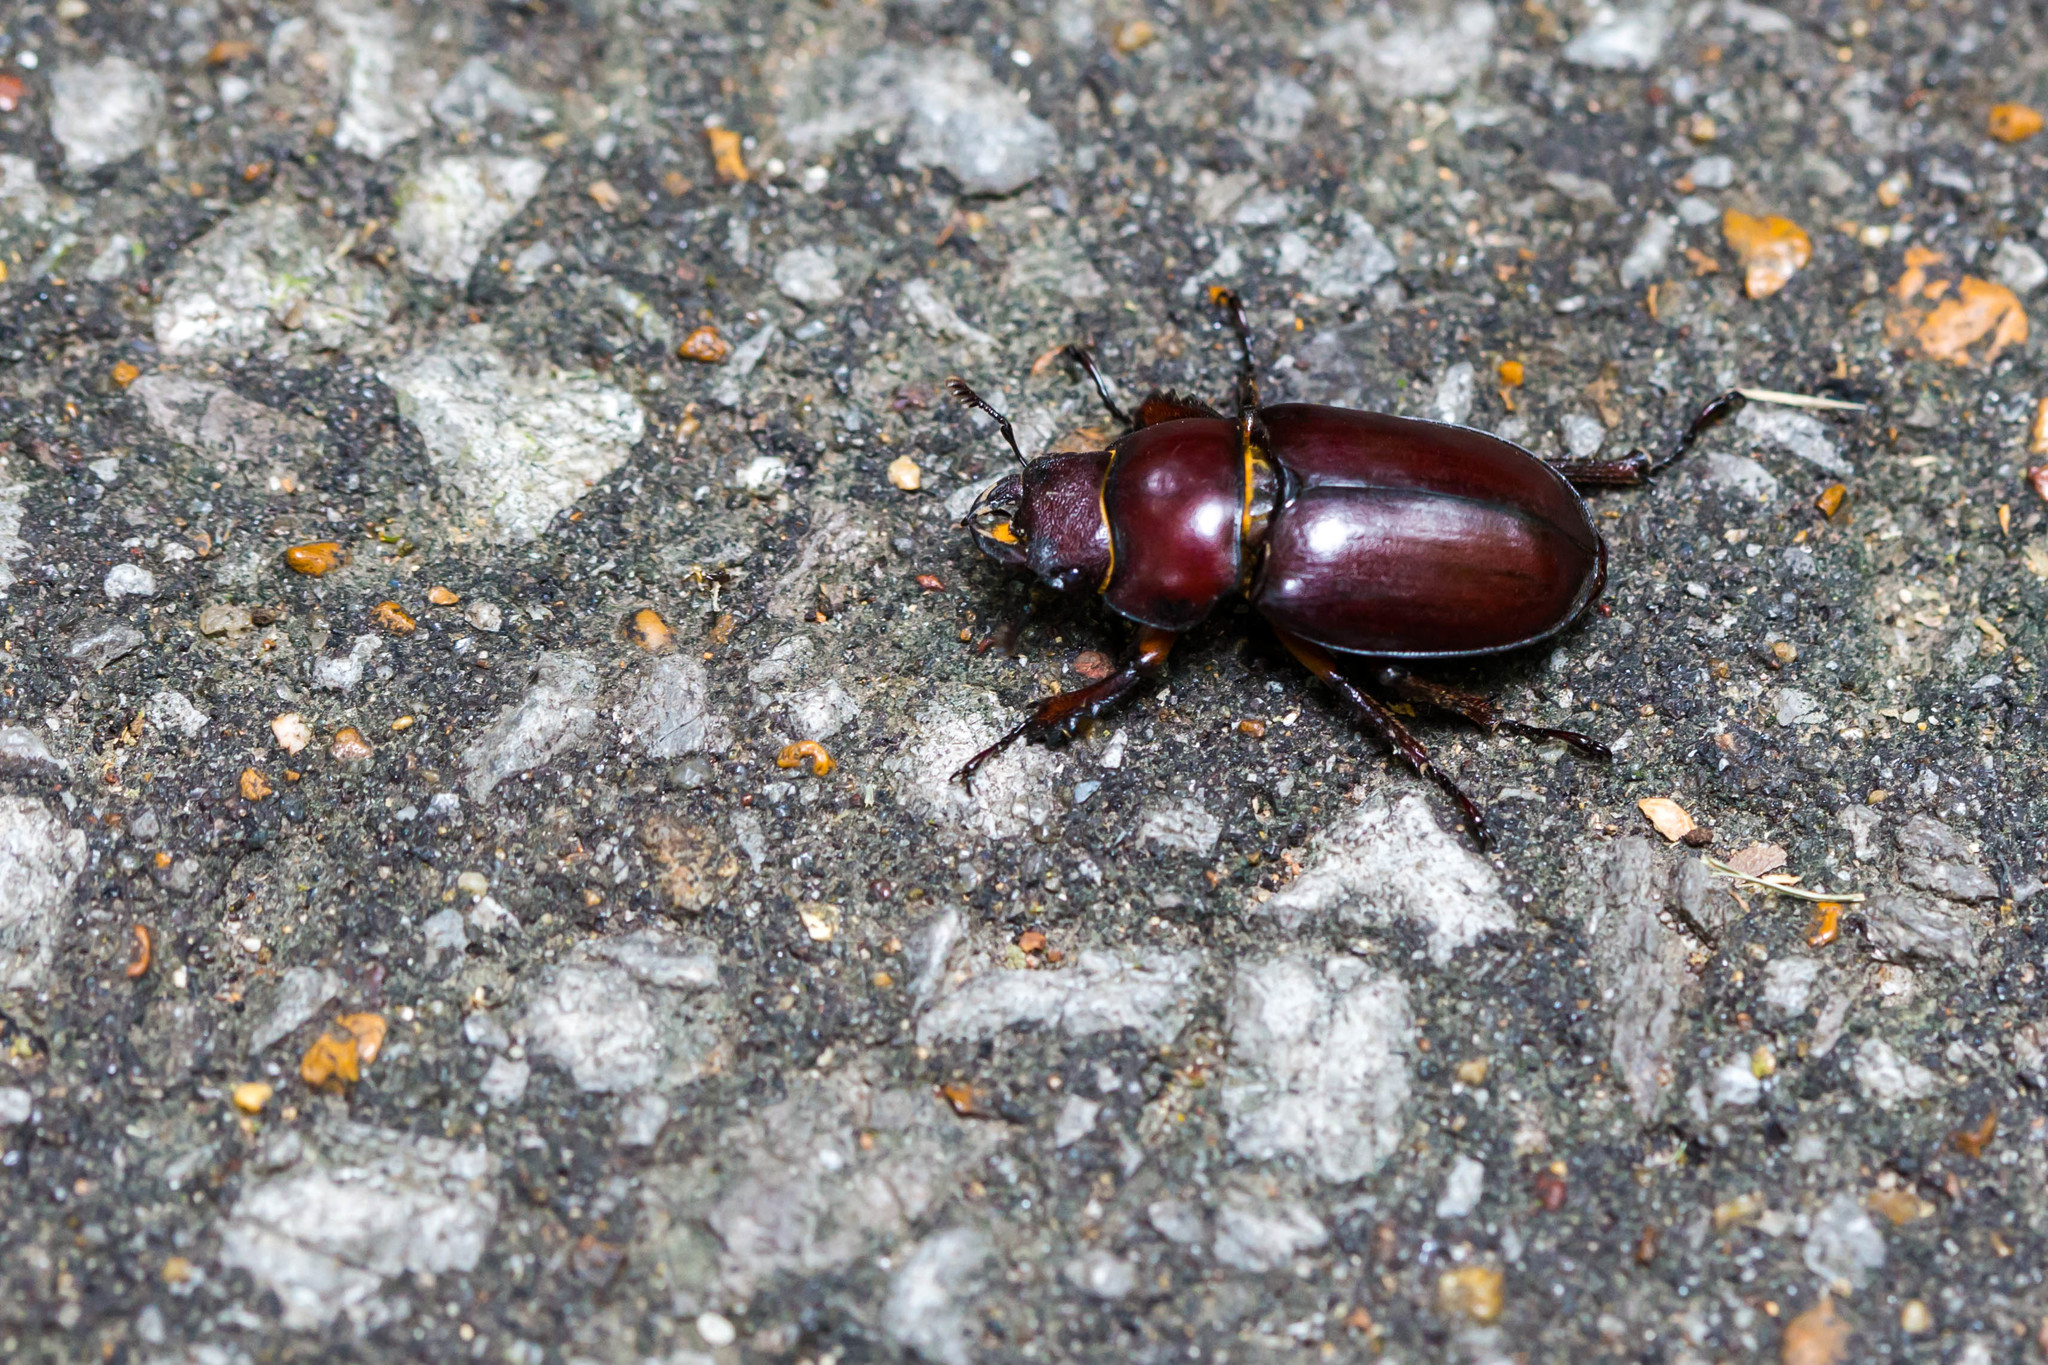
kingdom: Animalia
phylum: Arthropoda
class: Insecta
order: Coleoptera
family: Lucanidae
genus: Lucanus
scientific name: Lucanus capreolus
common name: Stag beetle
